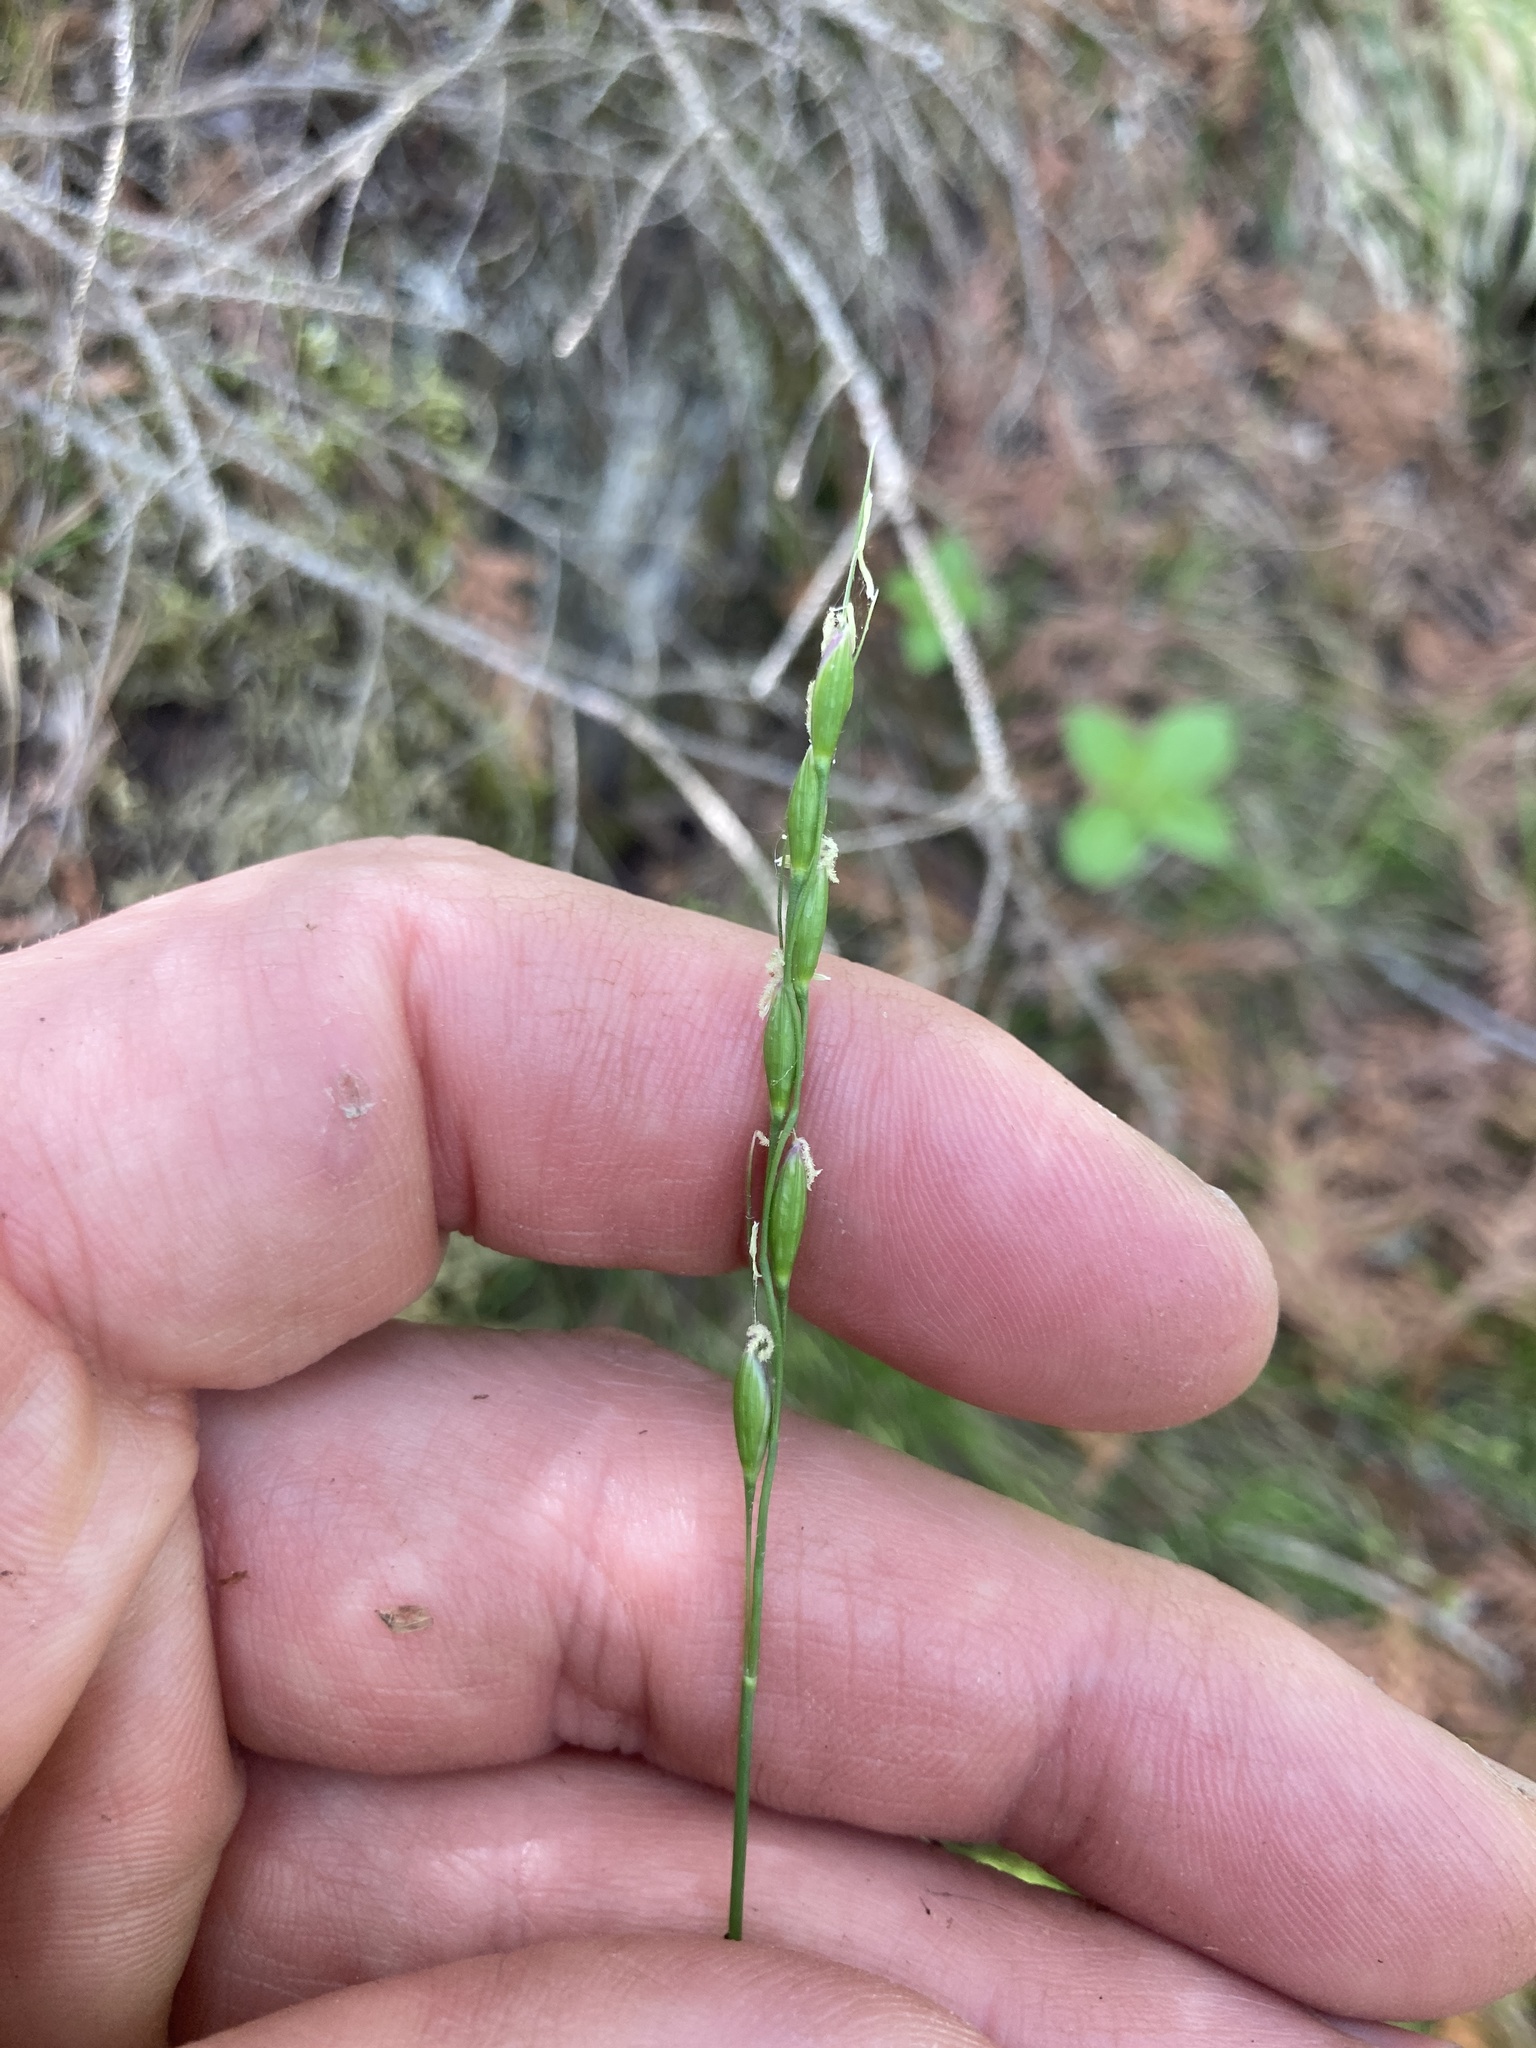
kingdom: Plantae
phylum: Tracheophyta
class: Liliopsida
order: Poales
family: Poaceae
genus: Oryzopsis
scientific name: Oryzopsis asperifolia
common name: Rough-leaved mountain rice
